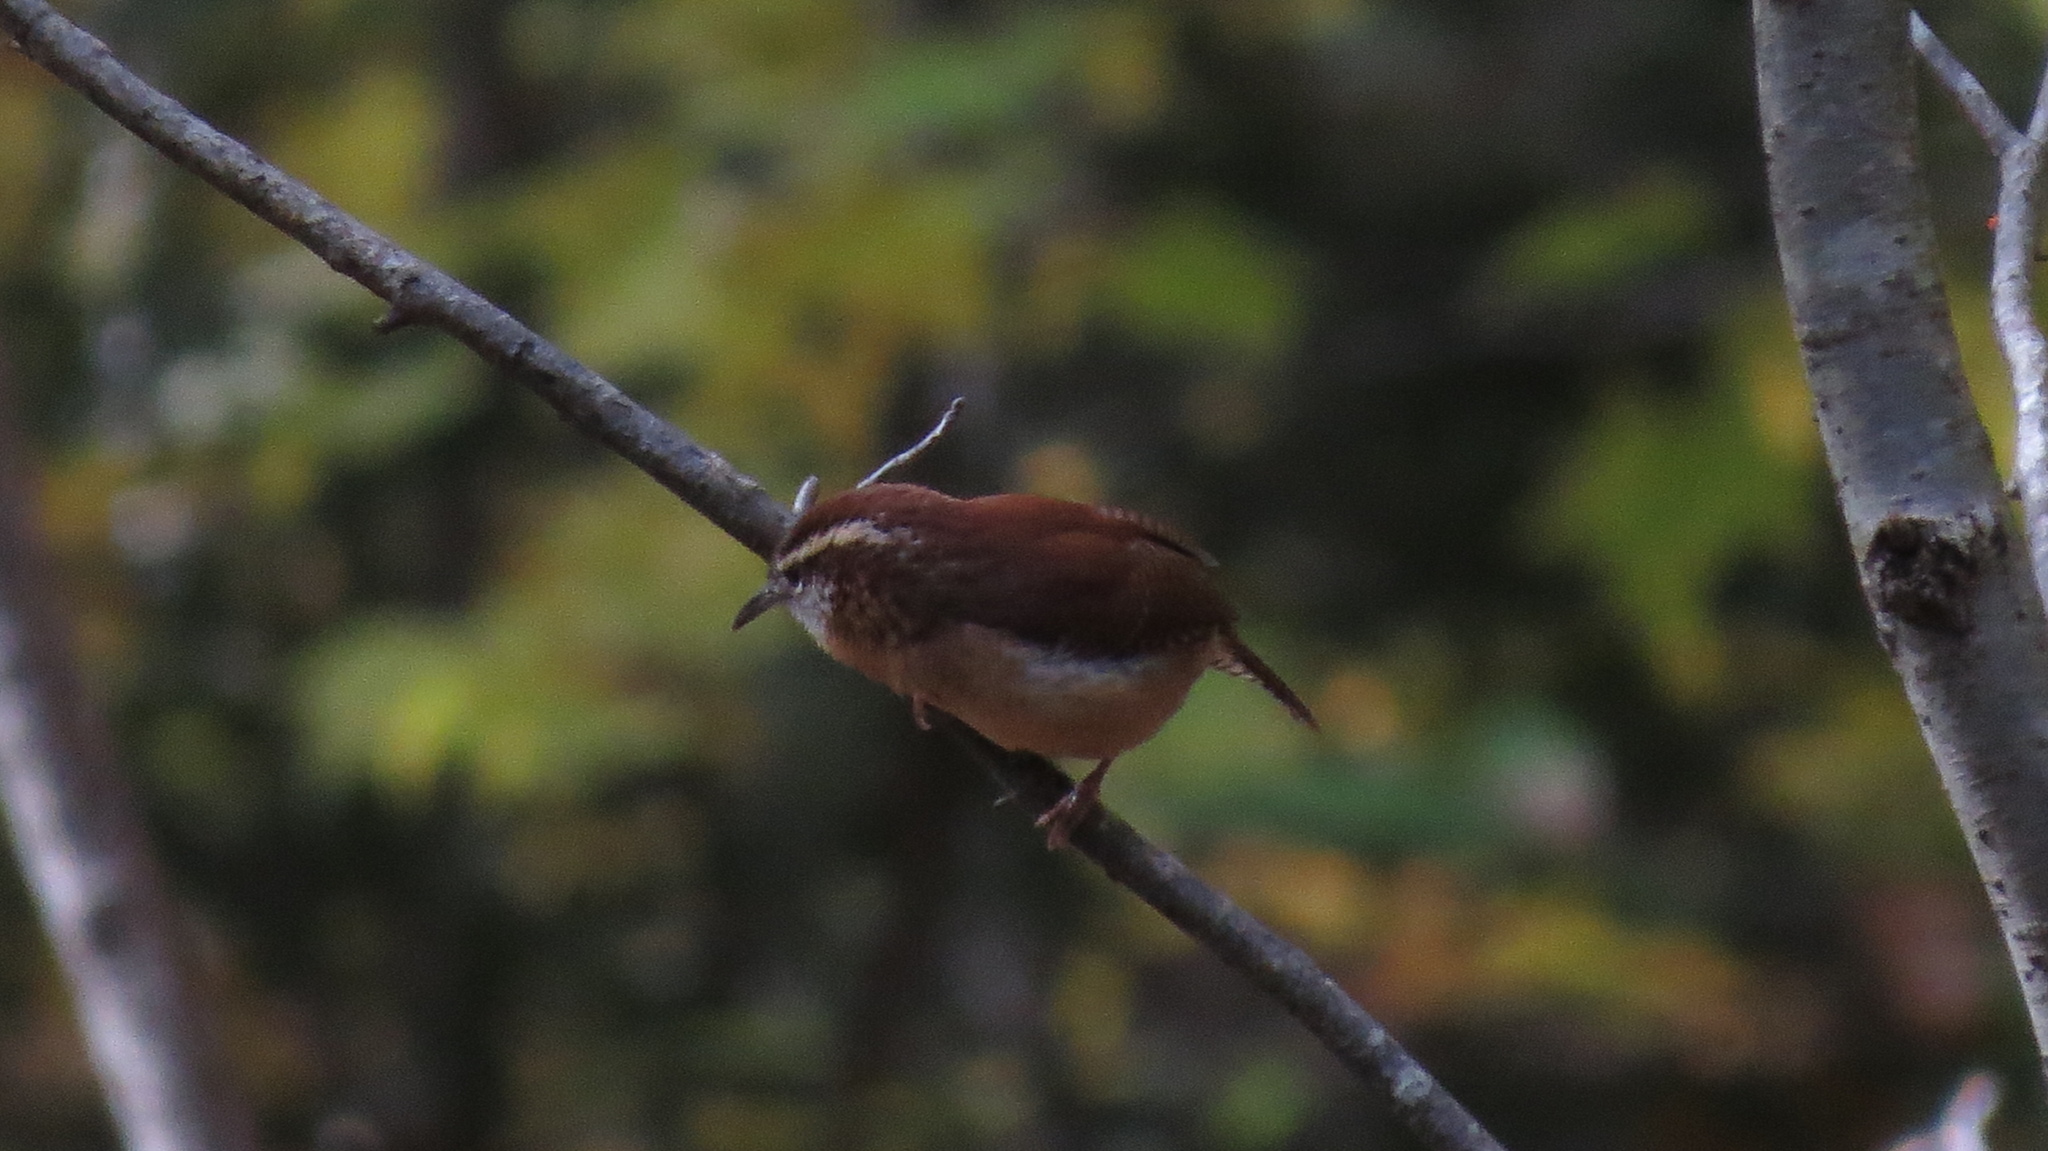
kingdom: Animalia
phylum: Chordata
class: Aves
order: Passeriformes
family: Troglodytidae
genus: Thryothorus
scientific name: Thryothorus ludovicianus
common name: Carolina wren
